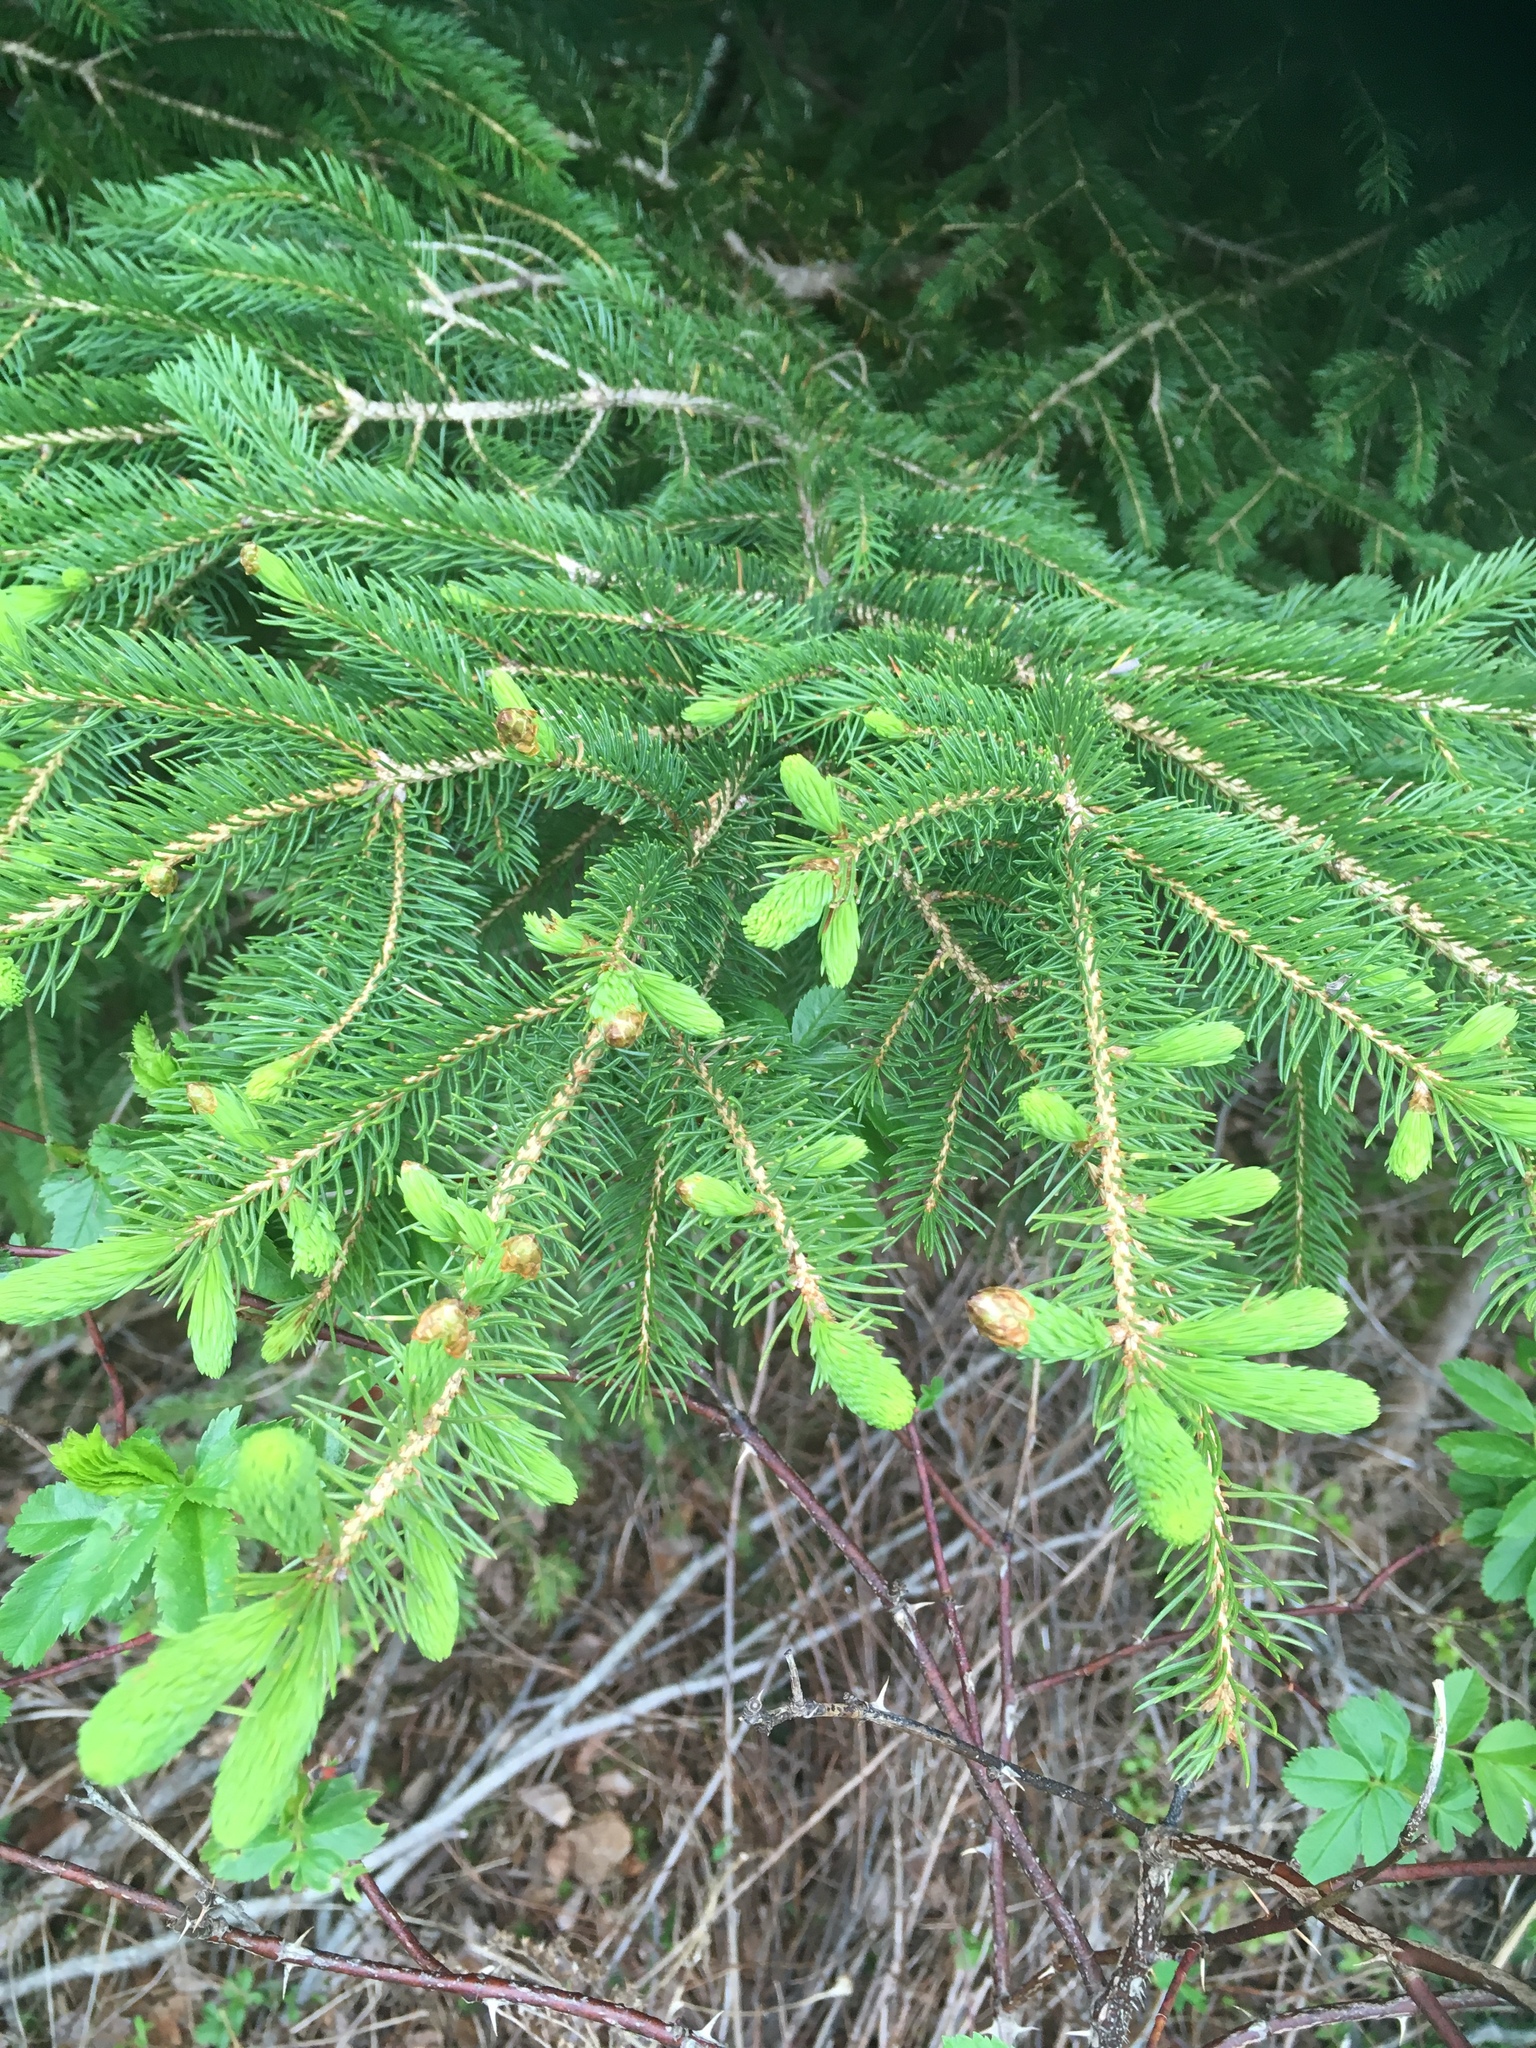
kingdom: Plantae
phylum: Tracheophyta
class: Pinopsida
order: Pinales
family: Pinaceae
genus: Picea
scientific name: Picea glauca
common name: White spruce
